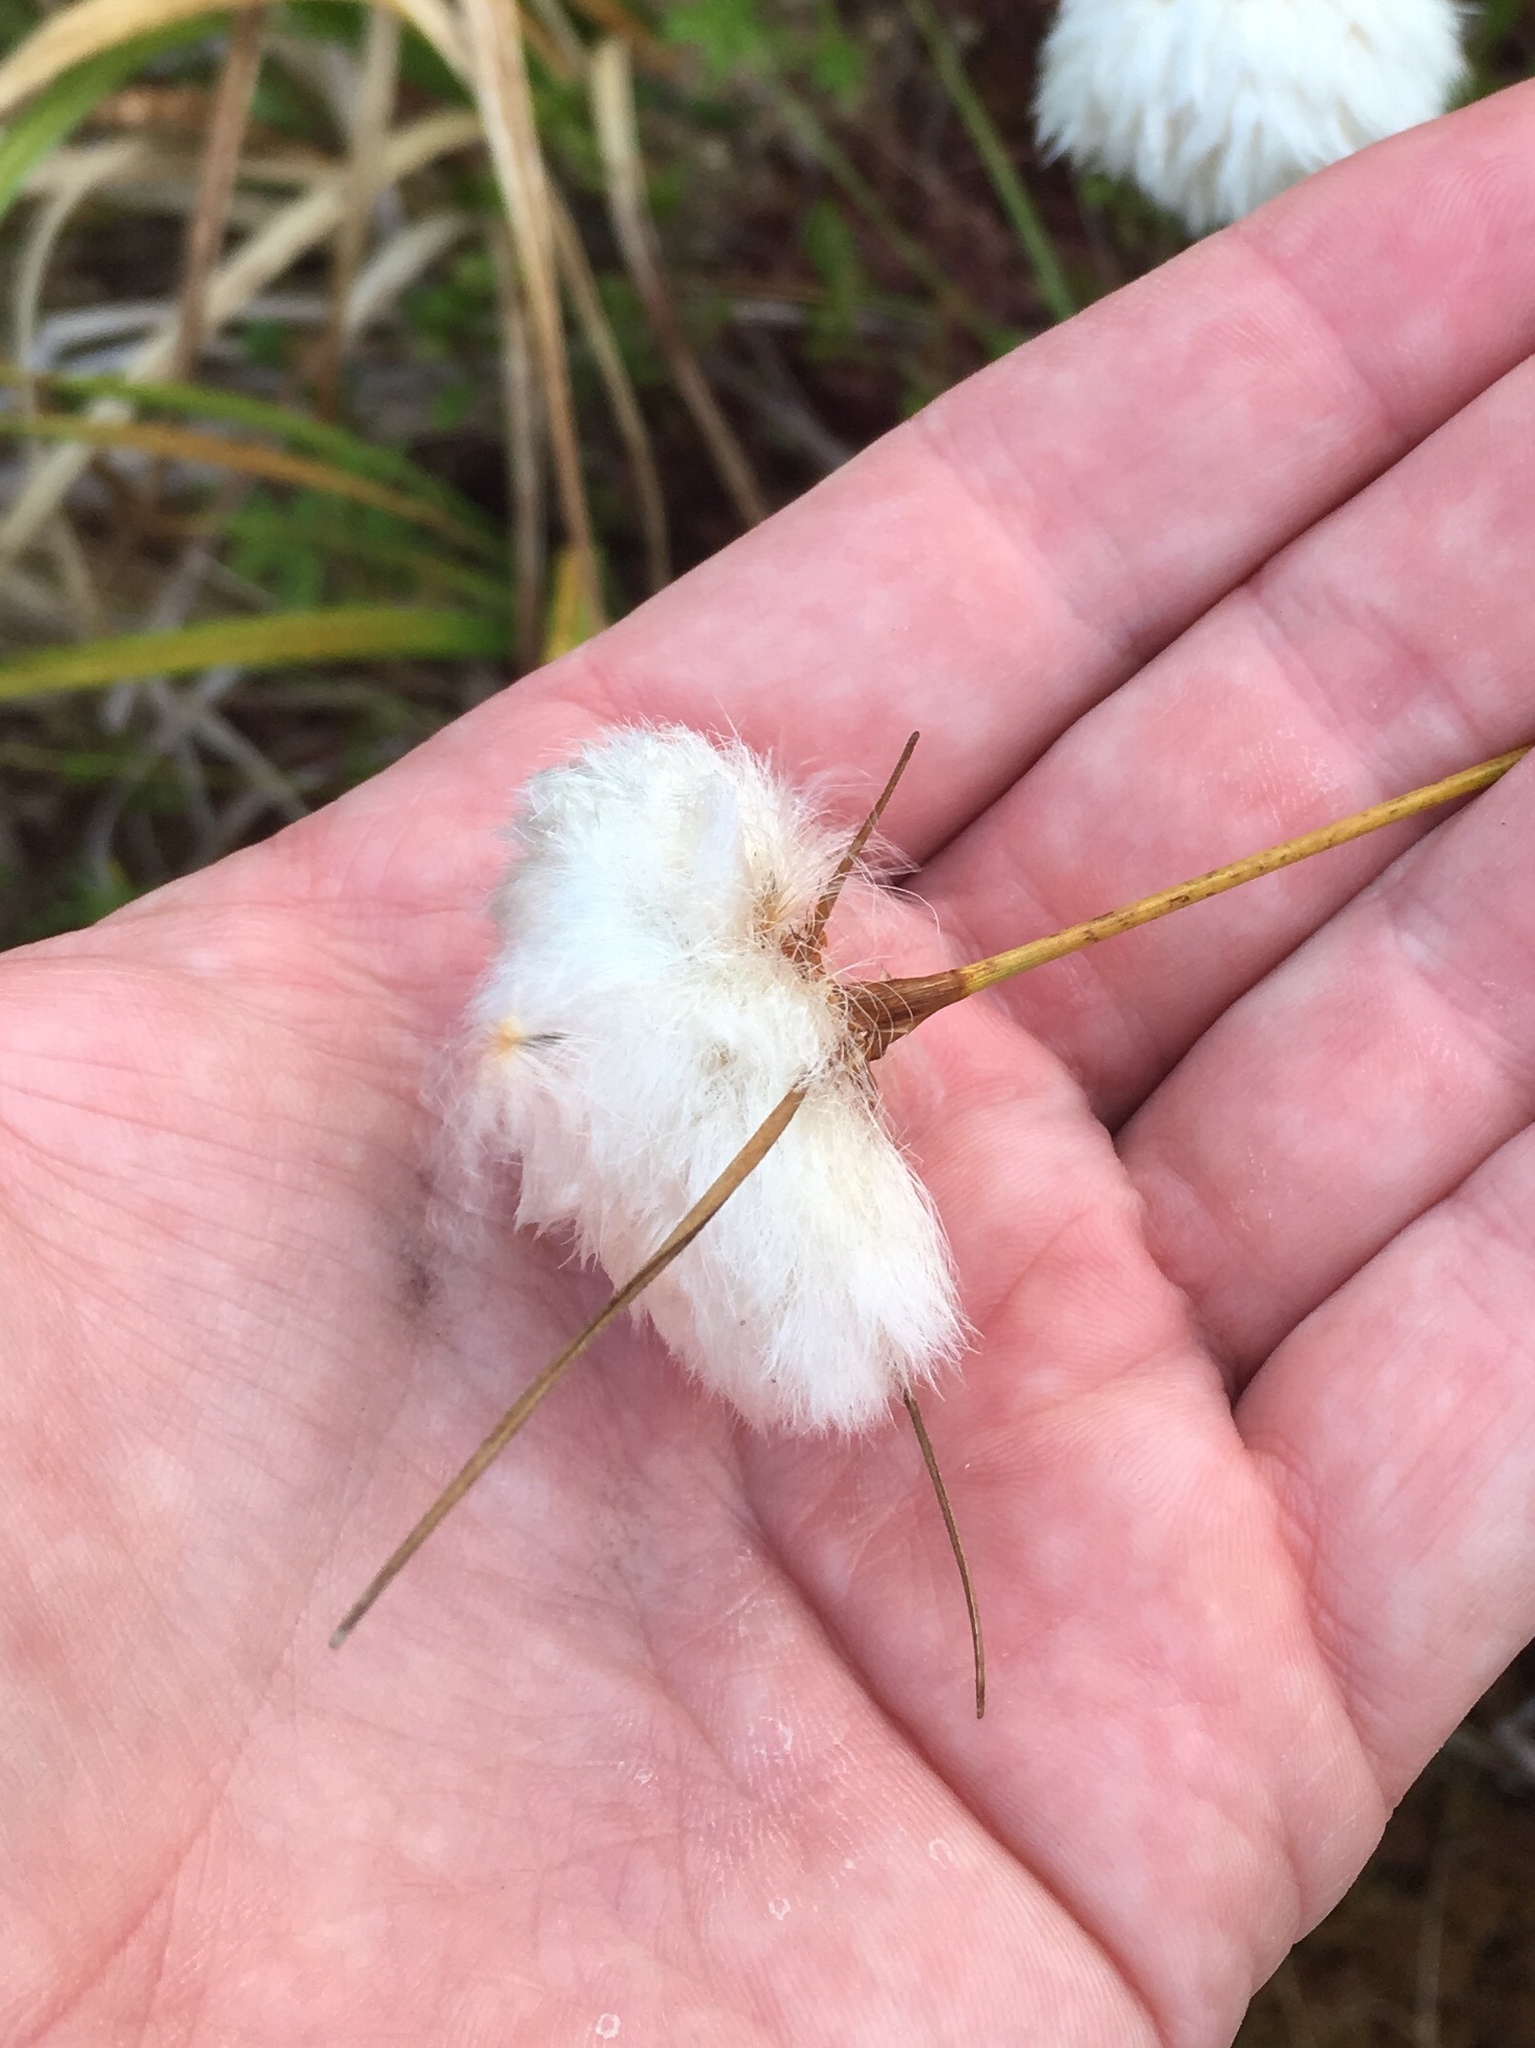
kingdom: Plantae
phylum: Tracheophyta
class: Liliopsida
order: Poales
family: Cyperaceae
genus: Eriophorum
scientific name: Eriophorum virginicum
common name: Tawny cottongrass
